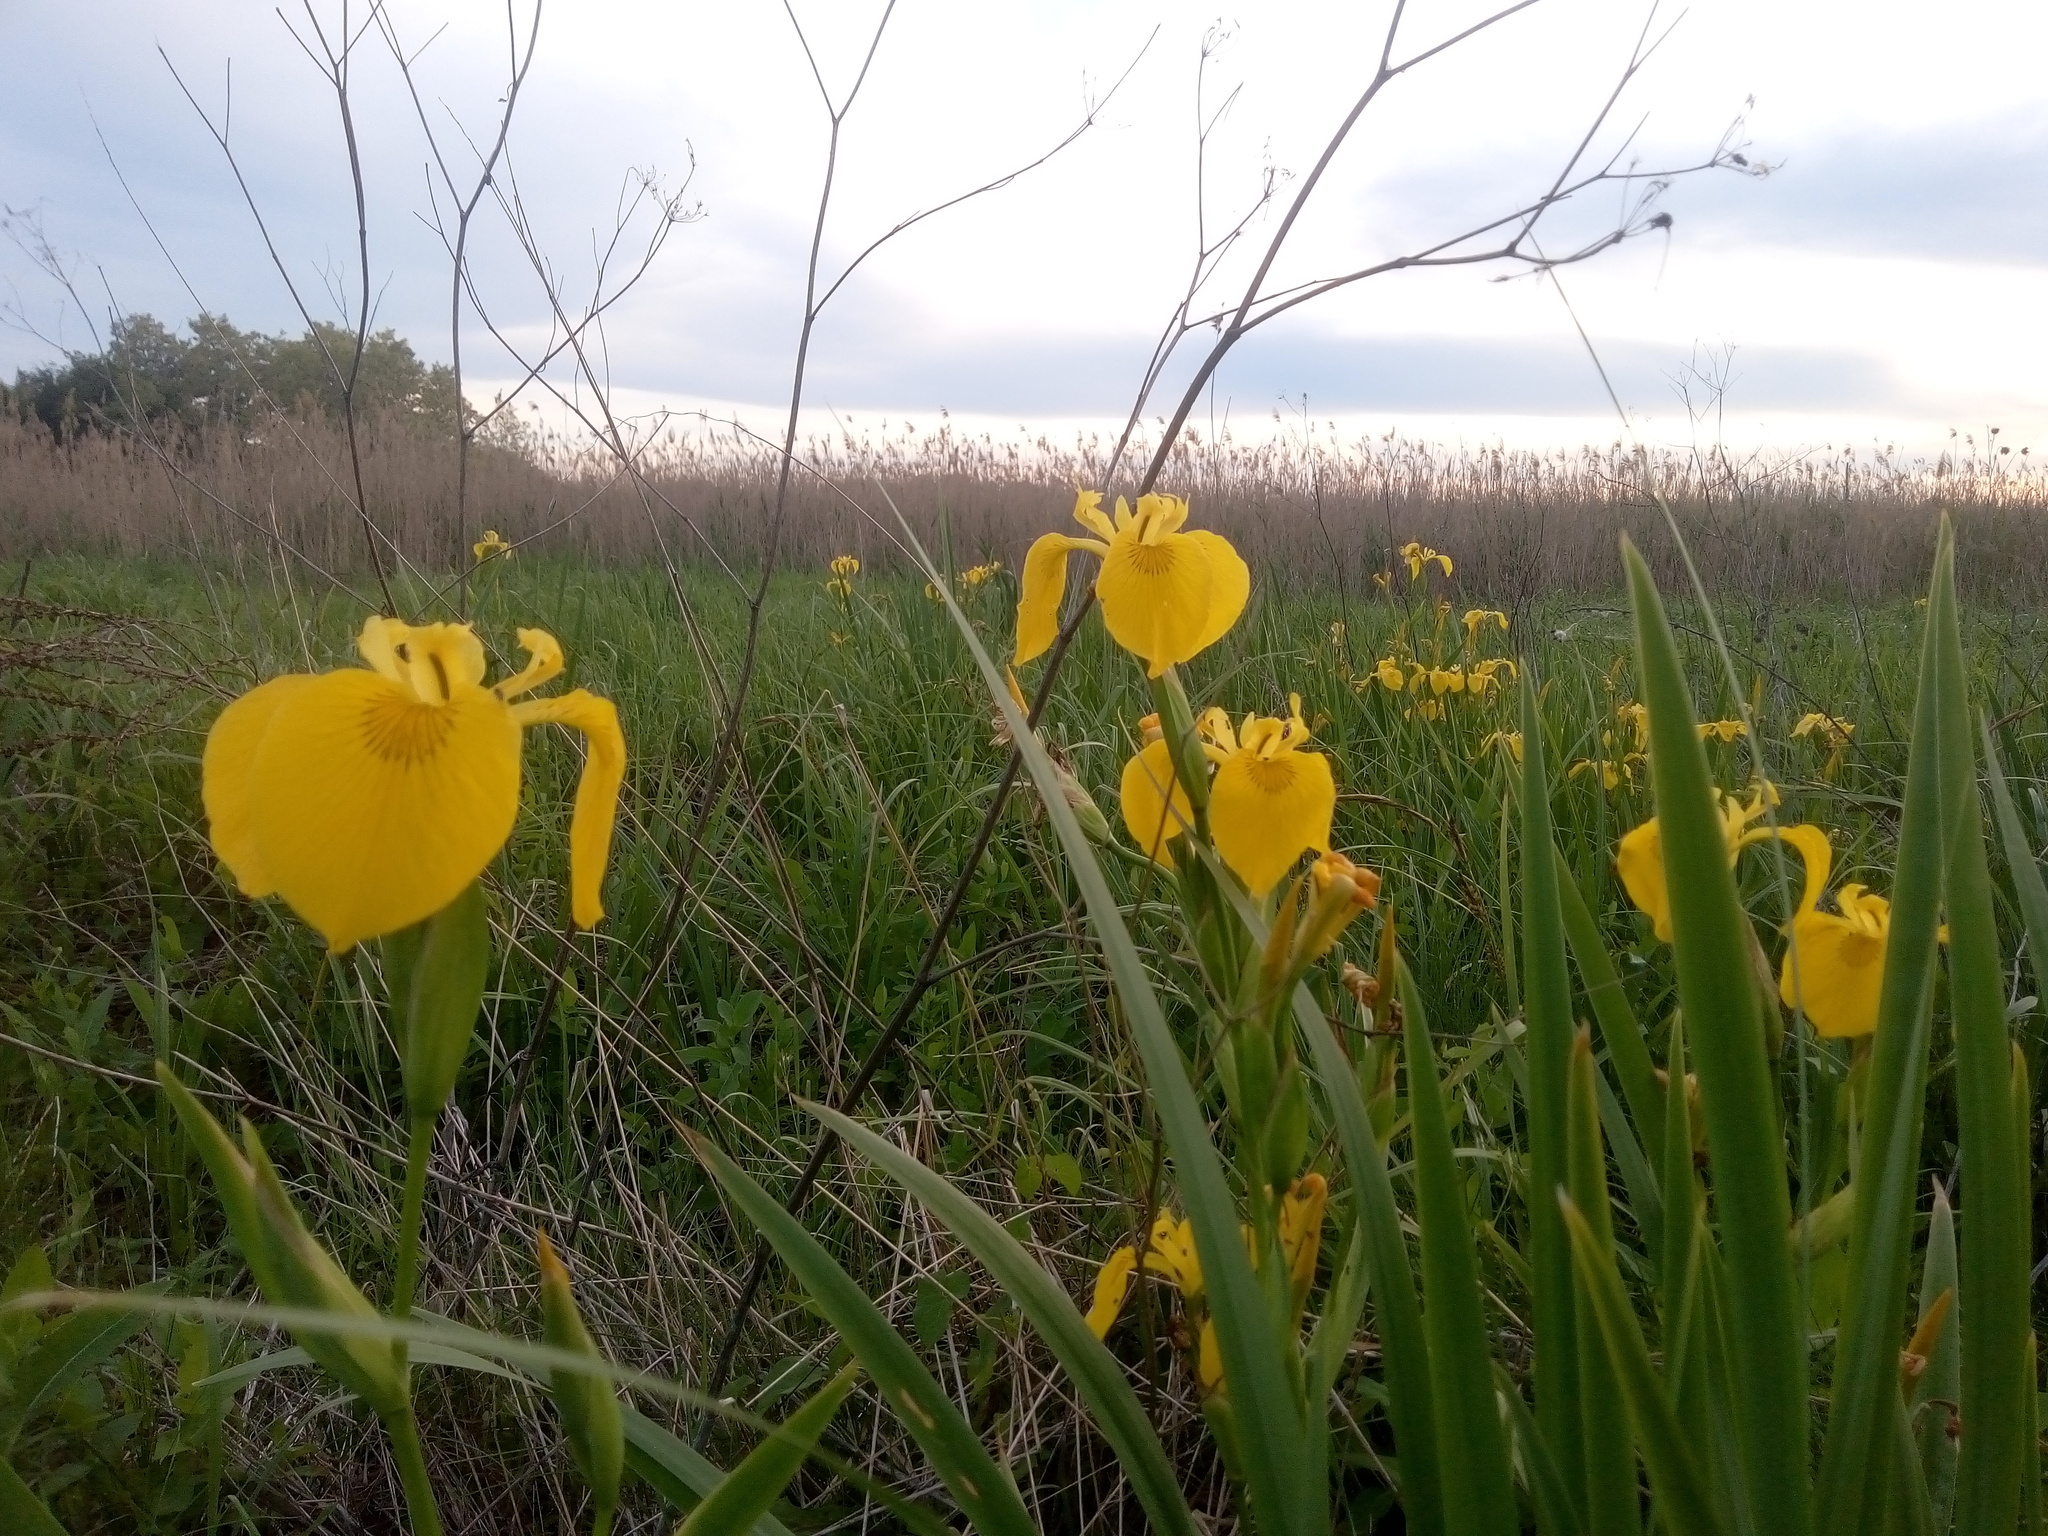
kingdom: Plantae
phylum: Tracheophyta
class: Liliopsida
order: Asparagales
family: Iridaceae
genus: Iris
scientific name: Iris pseudacorus
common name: Yellow flag
